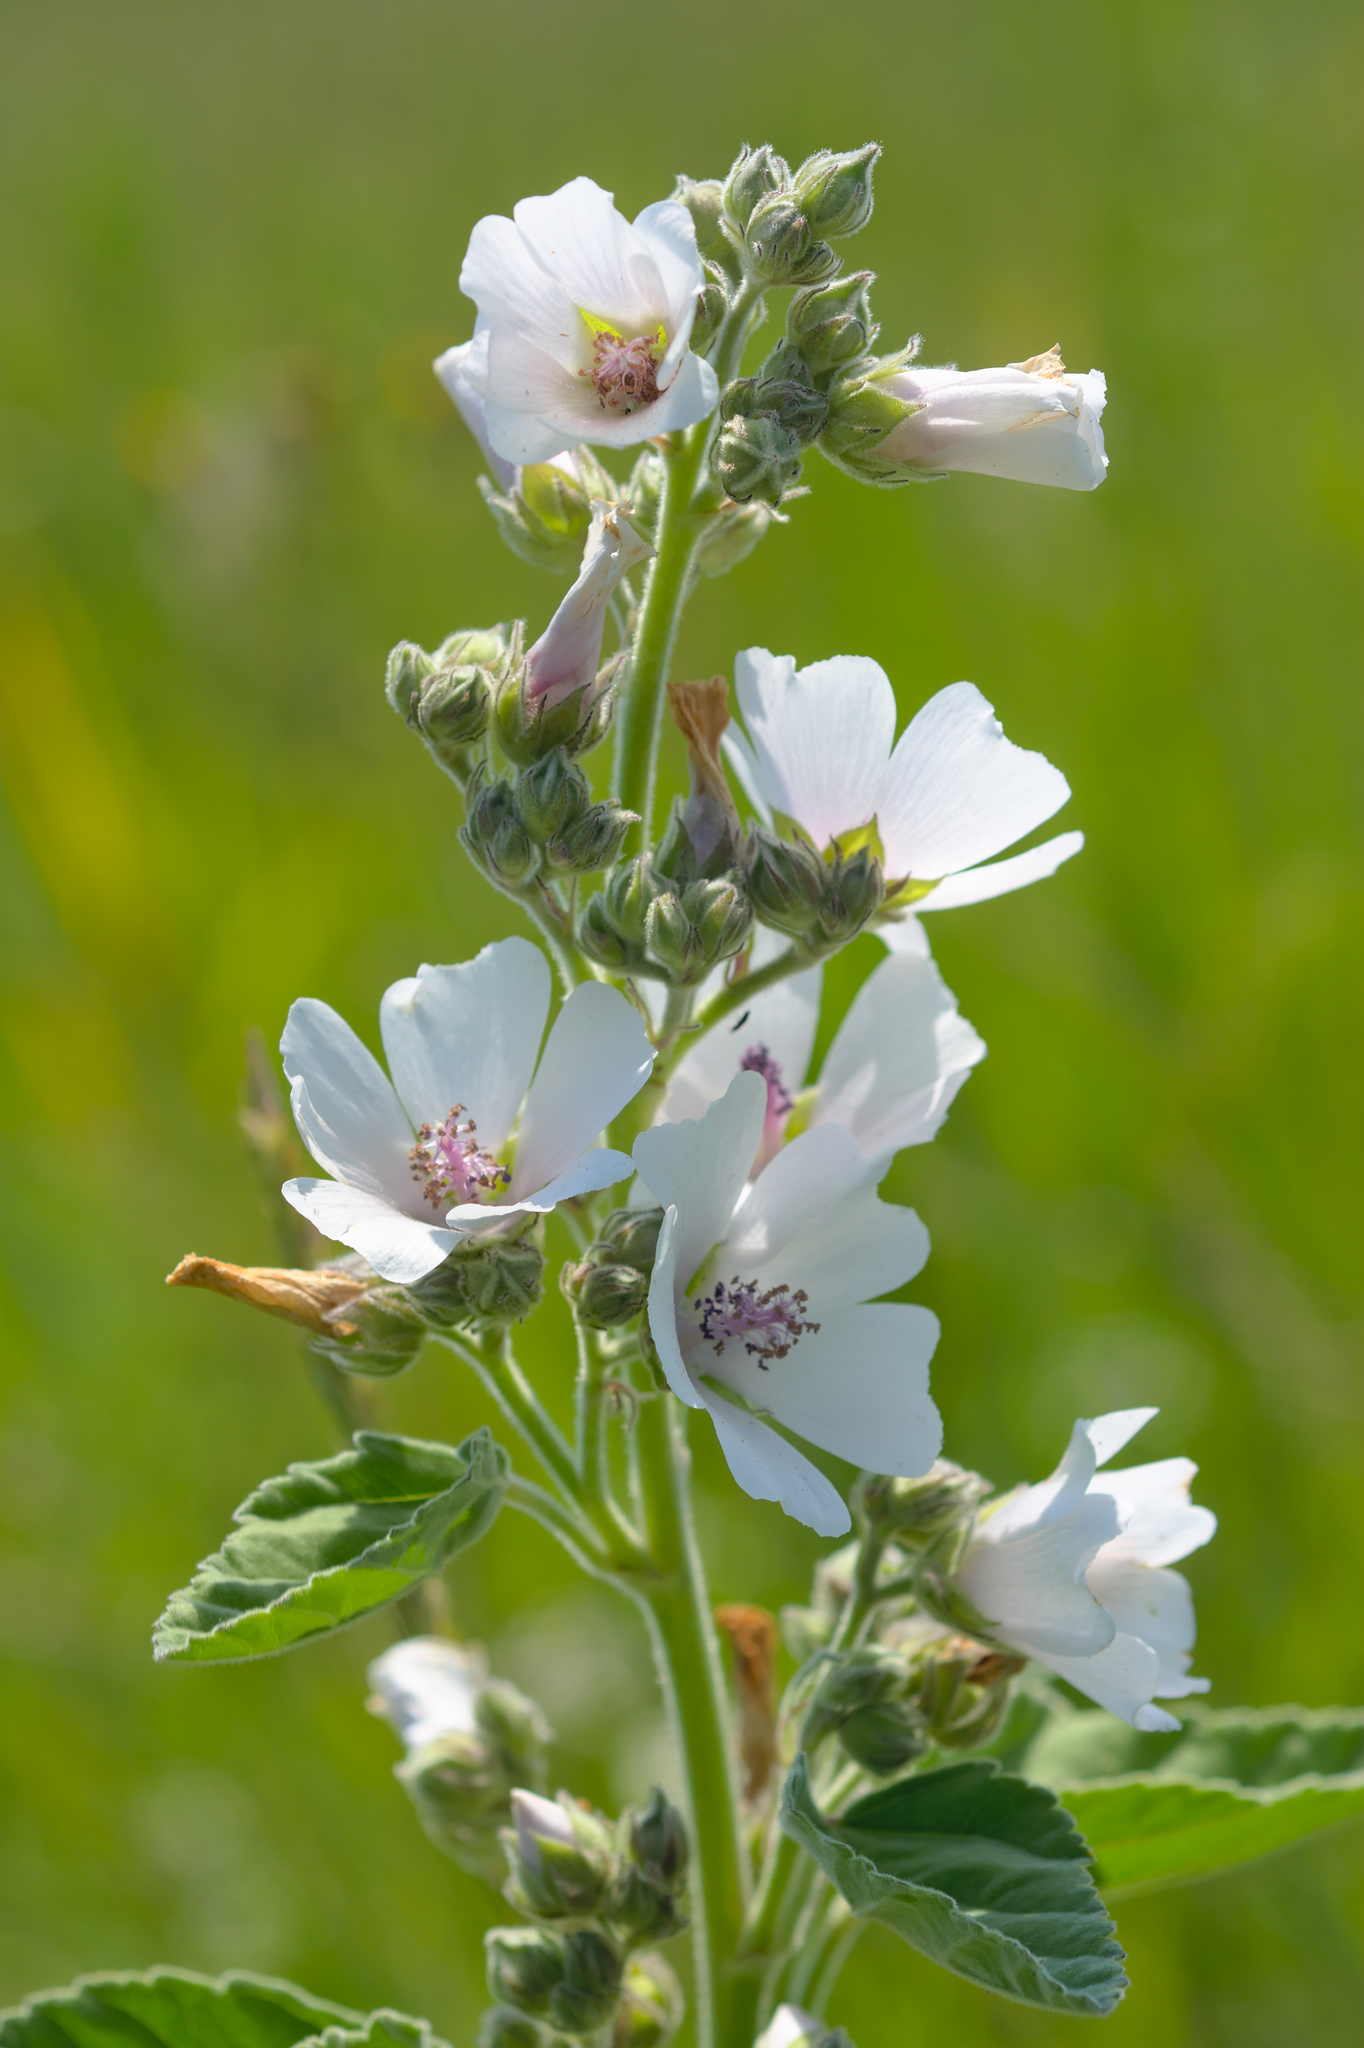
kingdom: Plantae
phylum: Tracheophyta
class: Magnoliopsida
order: Malvales
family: Malvaceae
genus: Althaea
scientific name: Althaea officinalis
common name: Marsh-mallow
